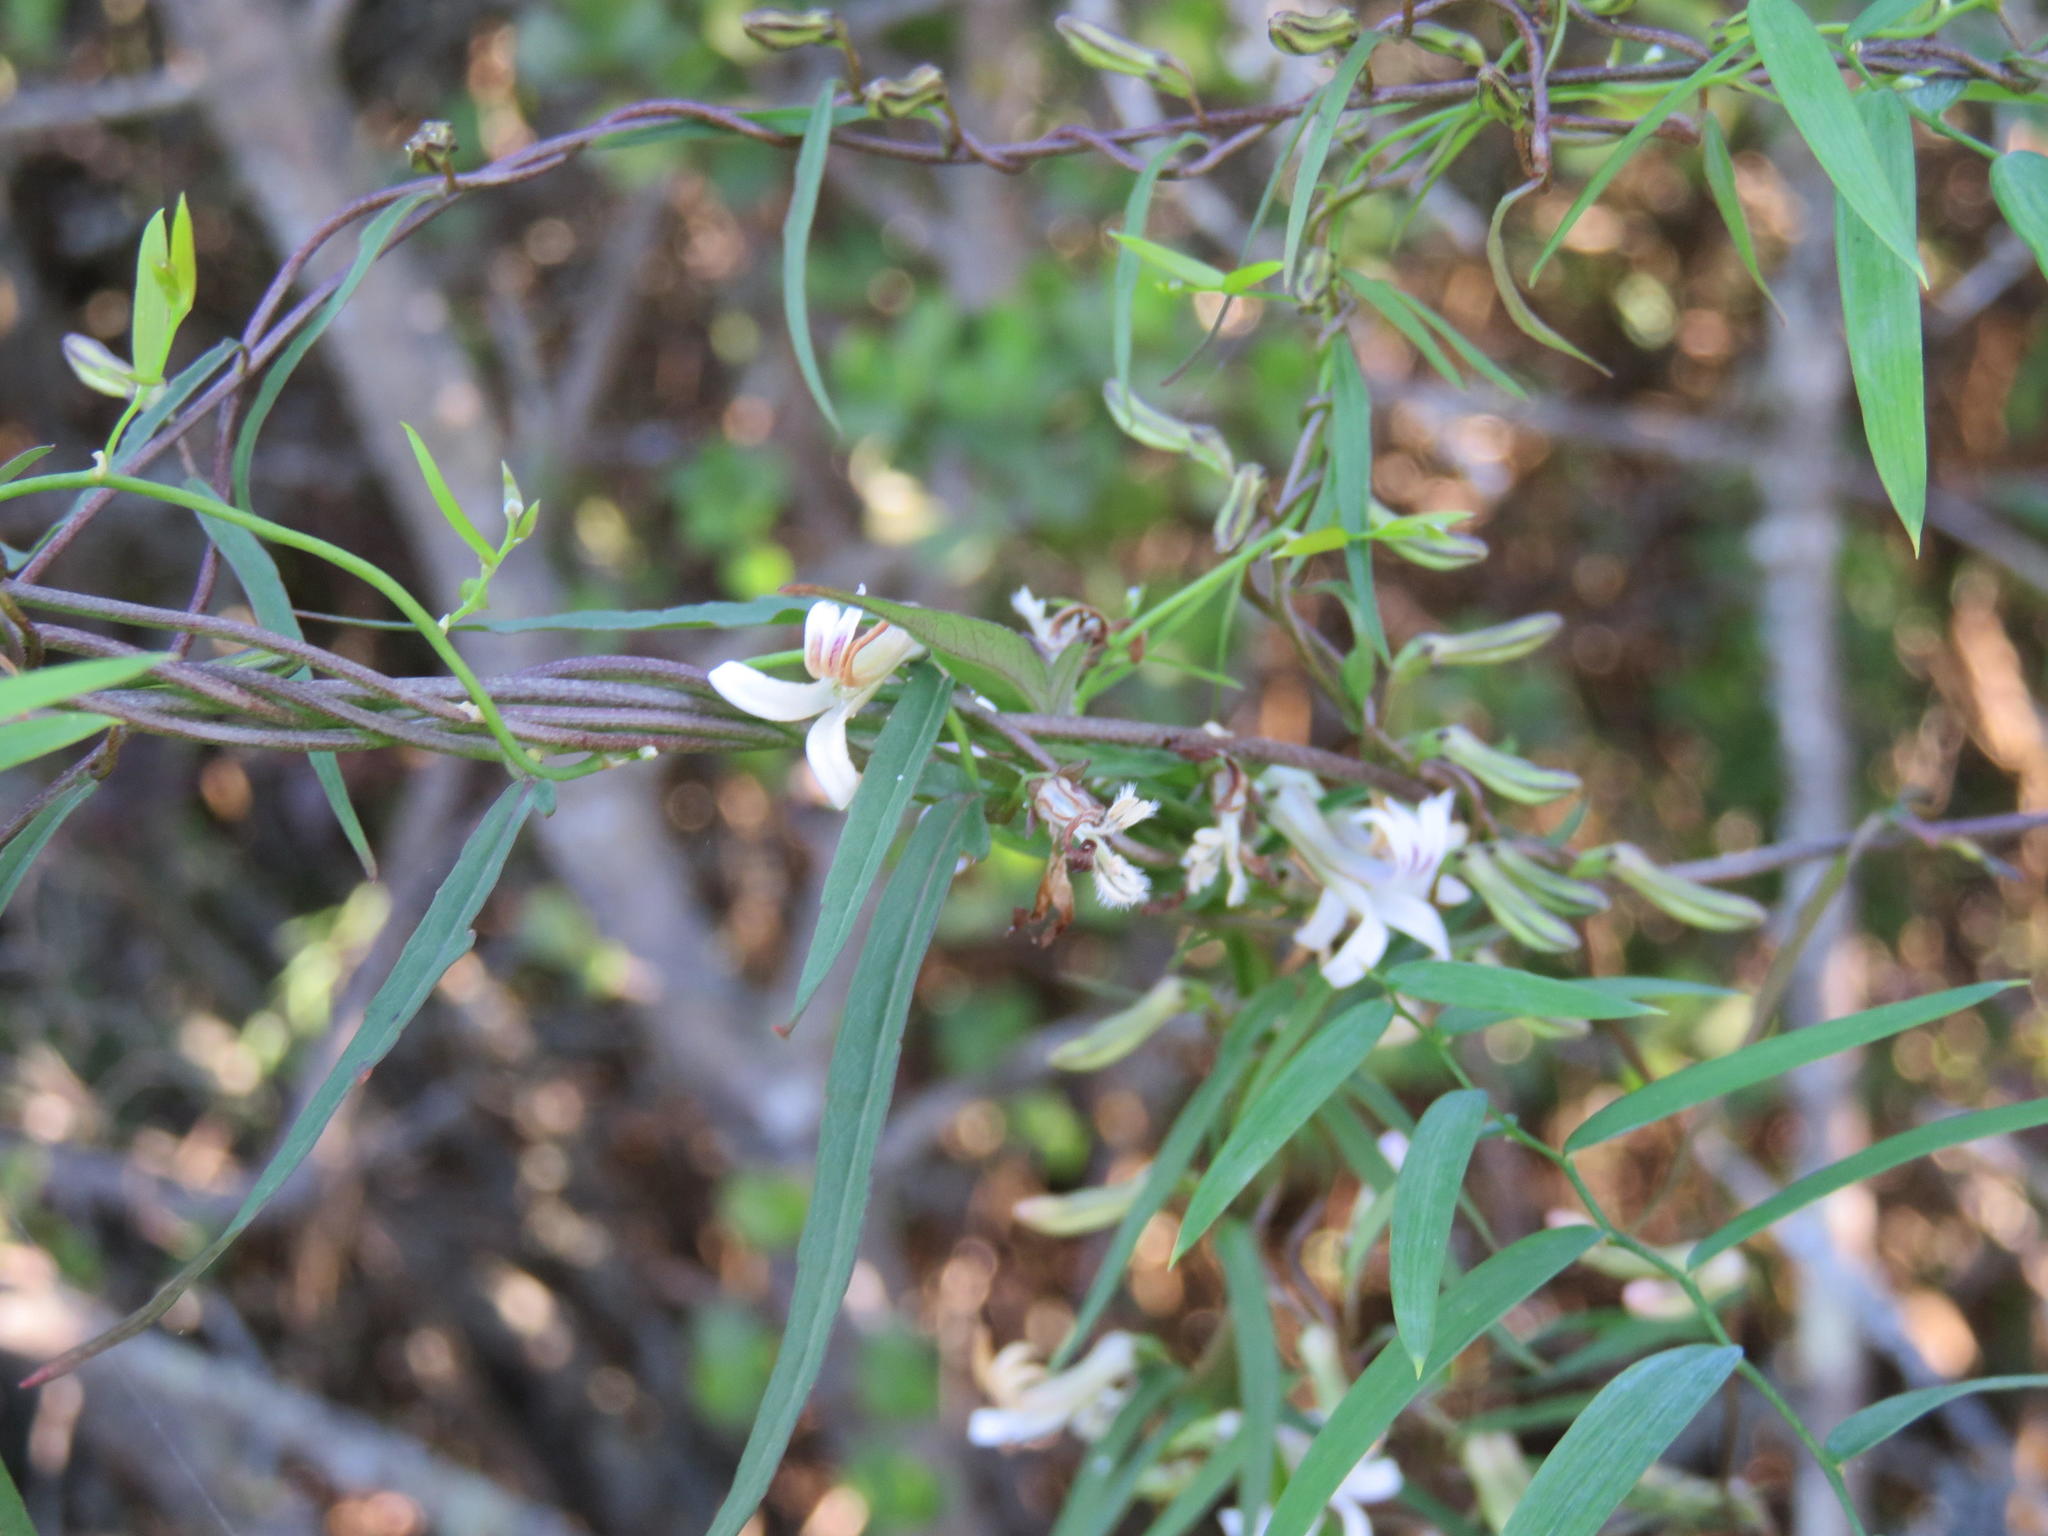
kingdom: Plantae
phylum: Tracheophyta
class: Magnoliopsida
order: Asterales
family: Campanulaceae
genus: Cyphia
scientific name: Cyphia sylvatica
